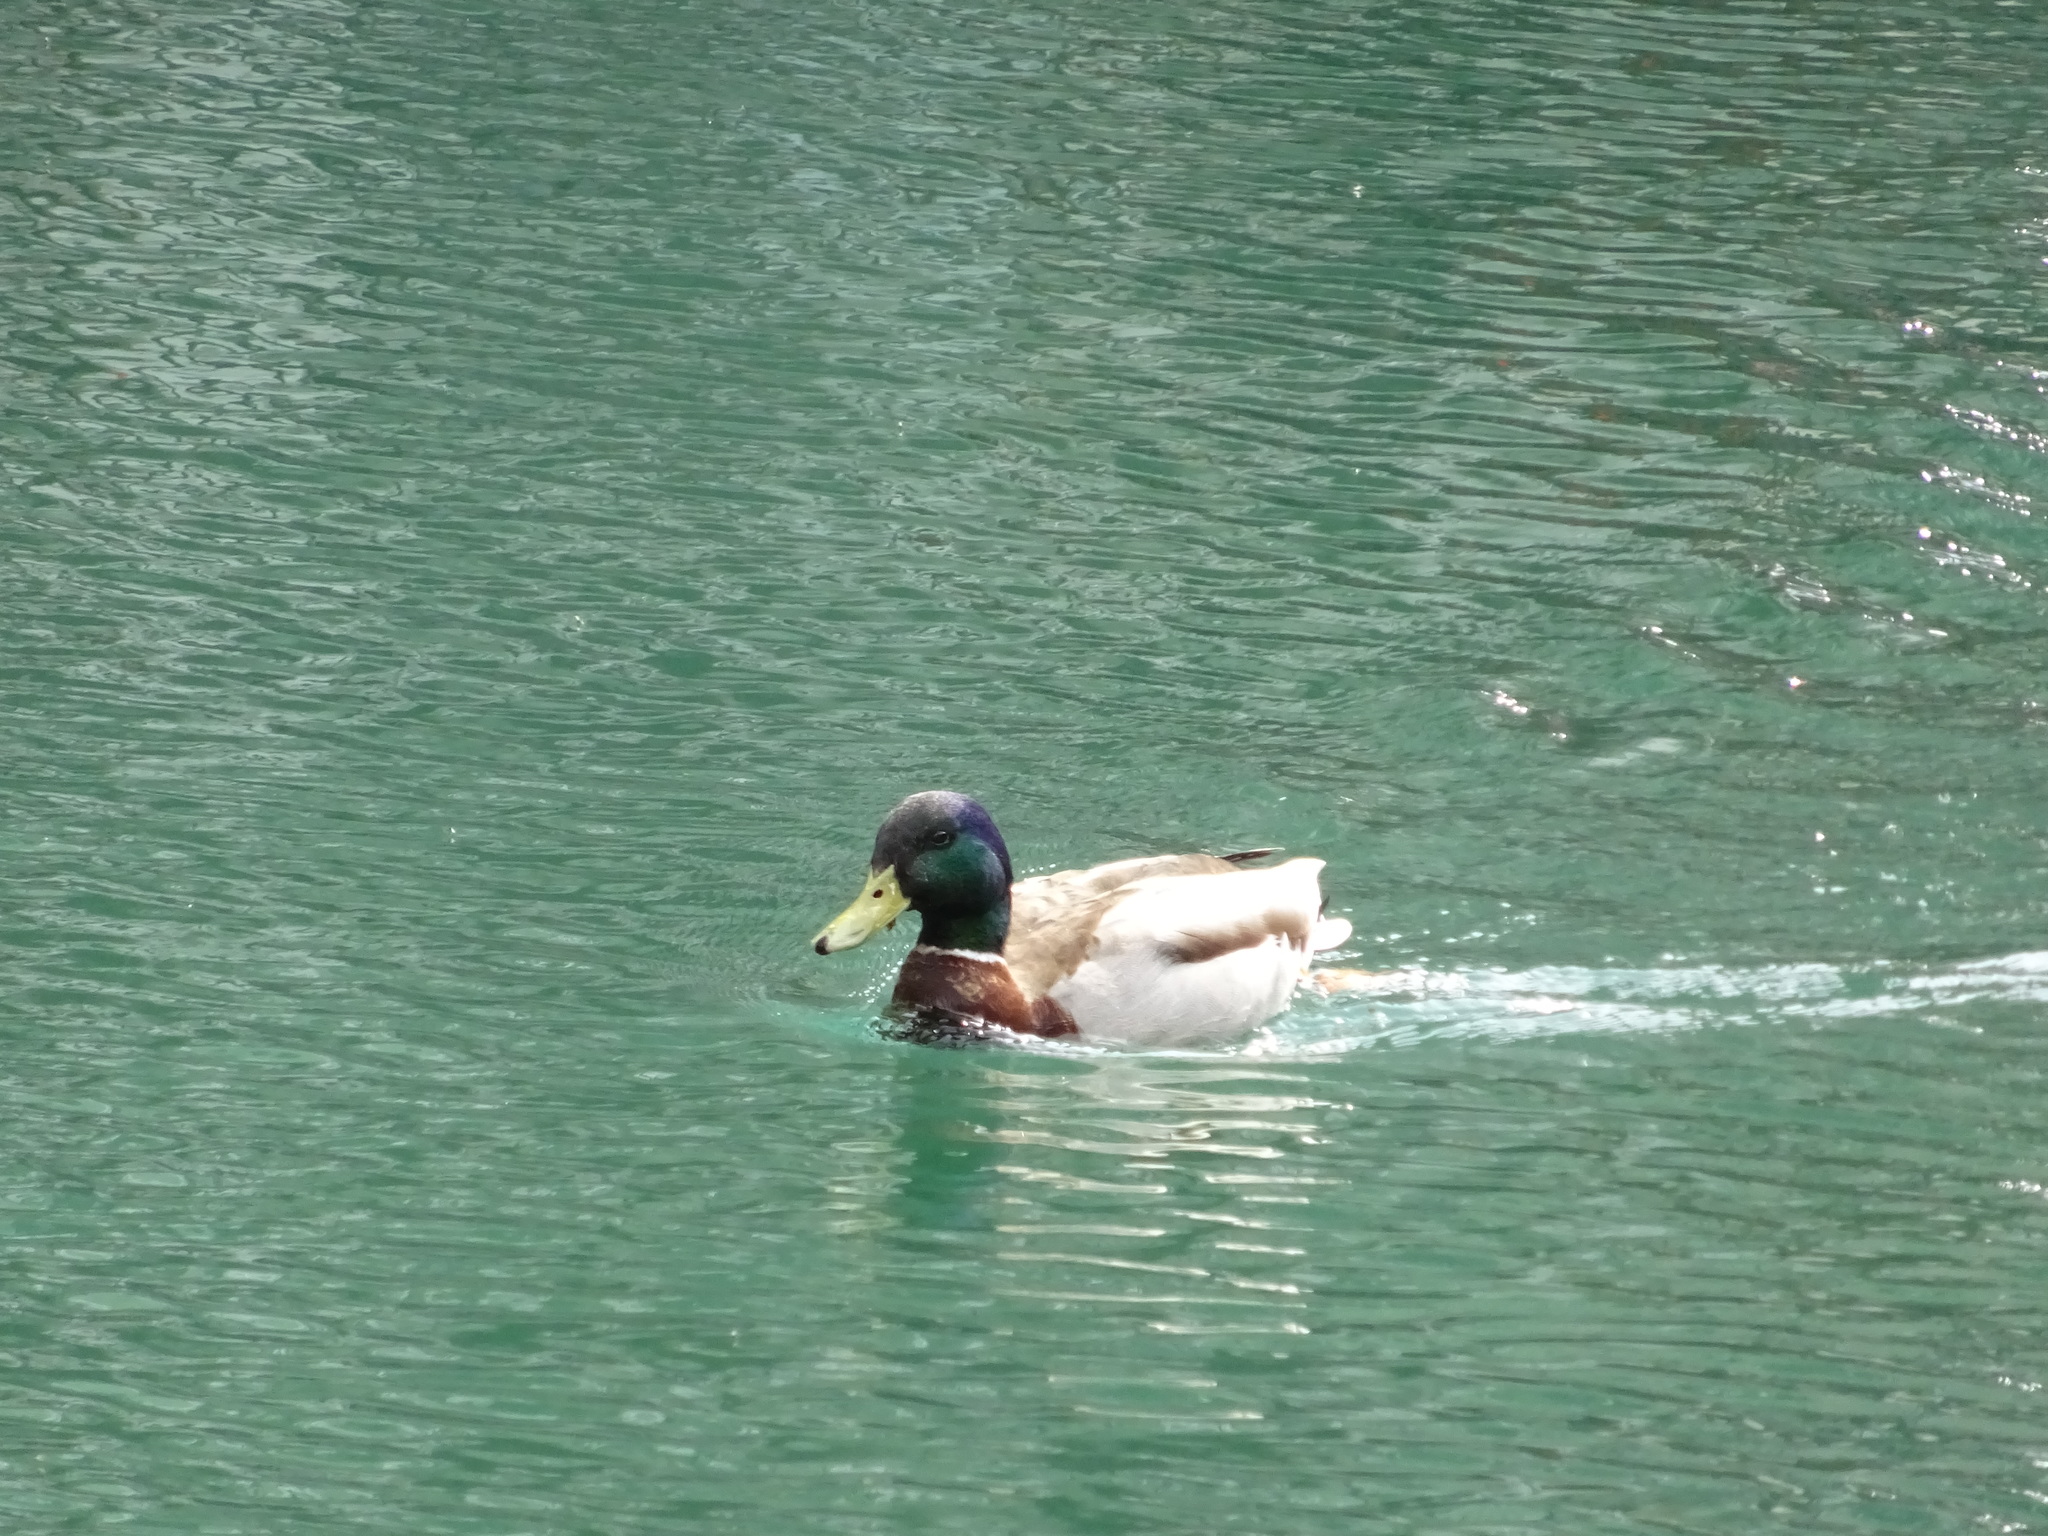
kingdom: Animalia
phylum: Chordata
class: Aves
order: Anseriformes
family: Anatidae
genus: Anas
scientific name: Anas platyrhynchos
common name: Mallard
